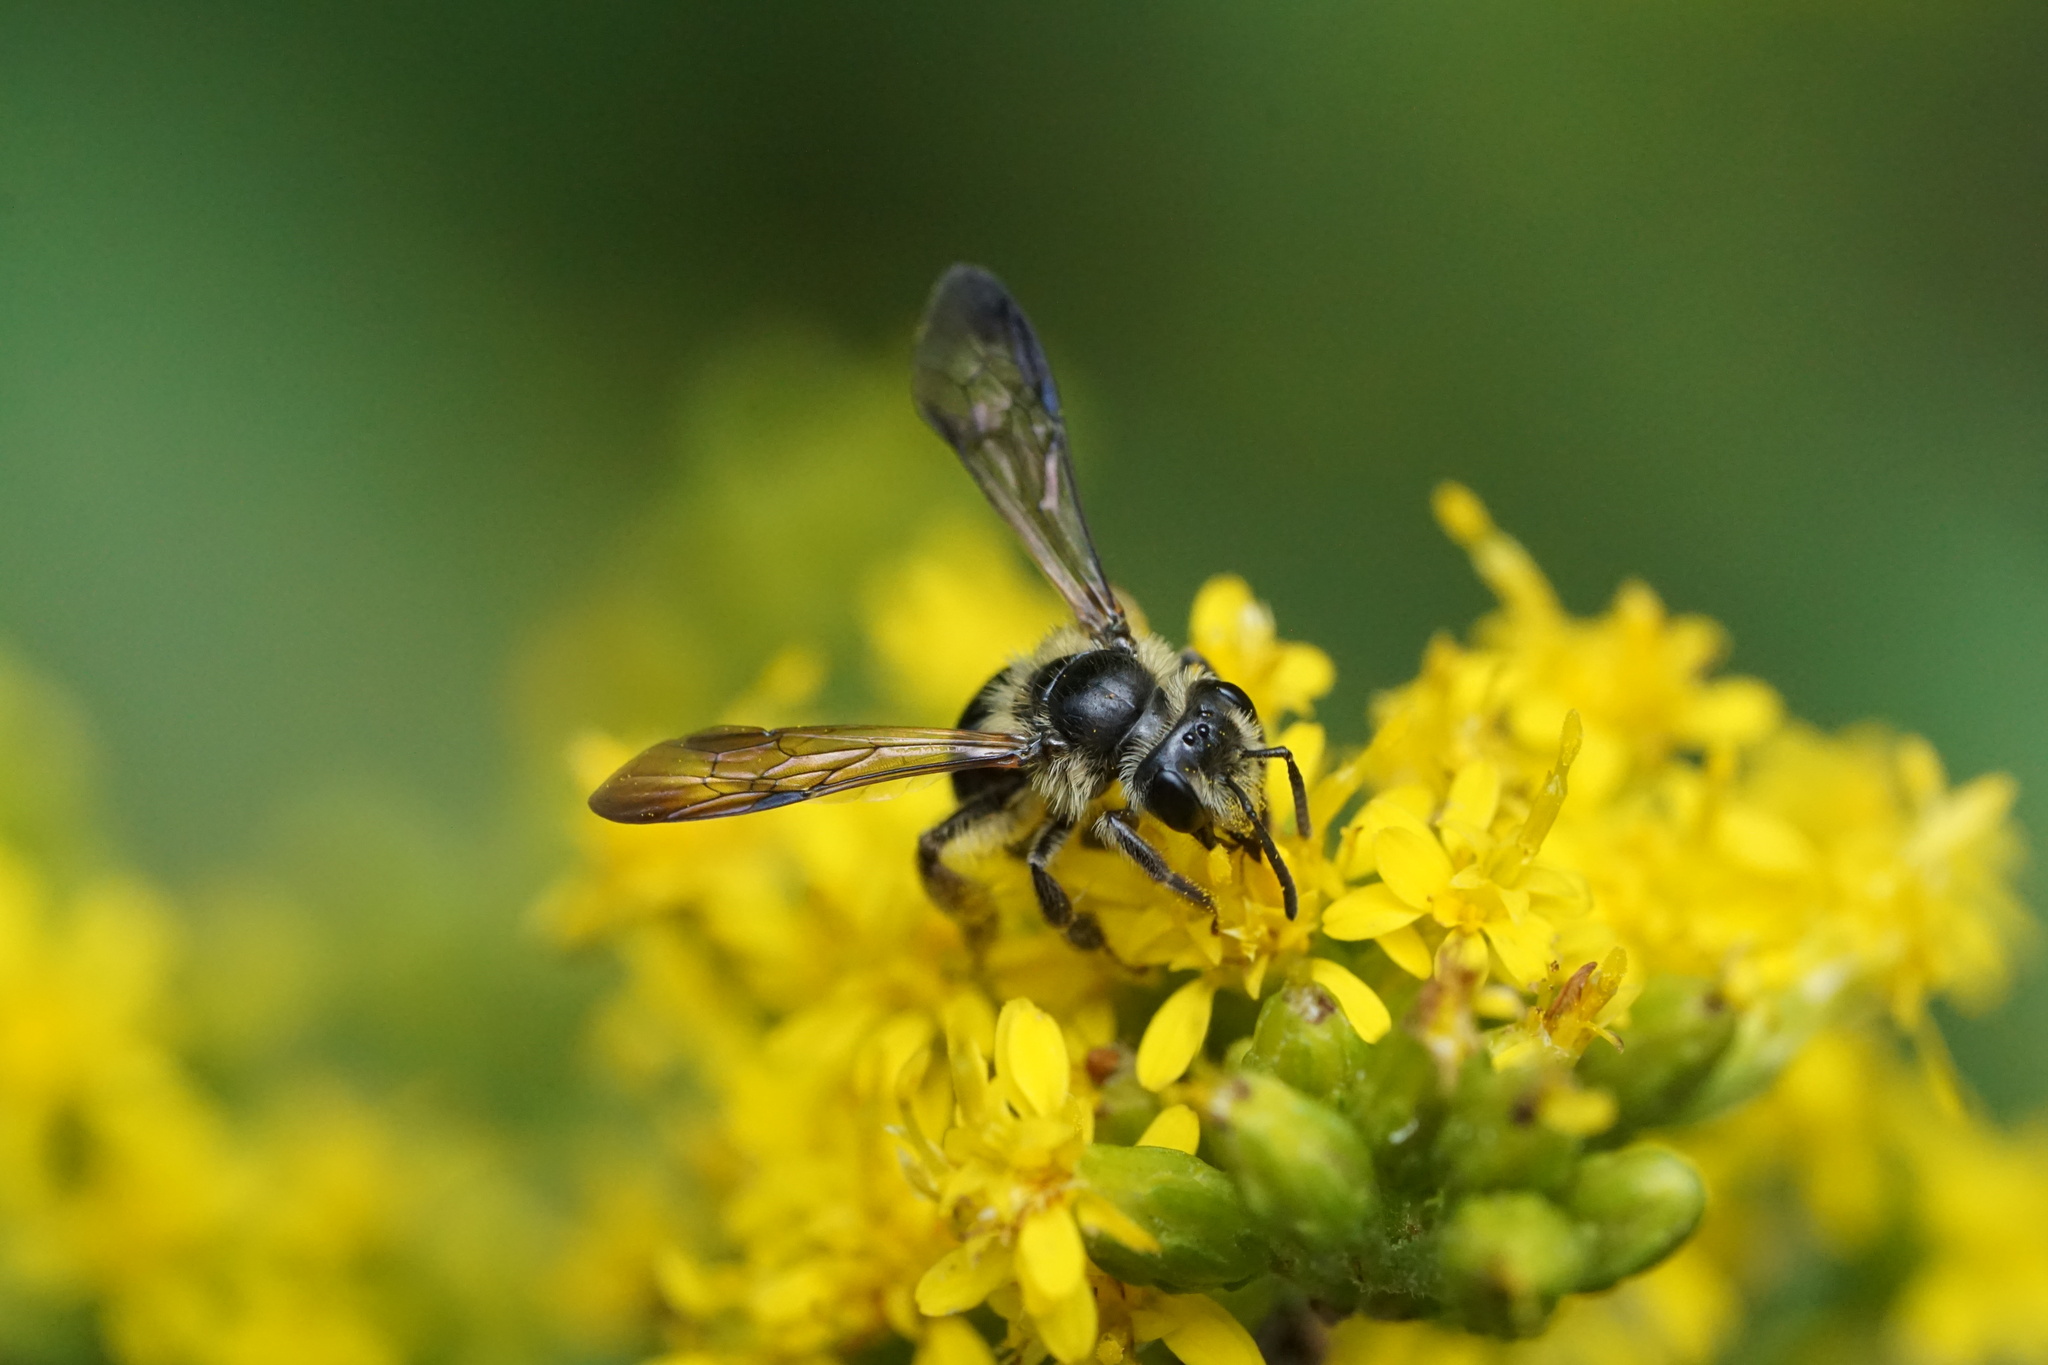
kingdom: Animalia
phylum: Arthropoda
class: Insecta
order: Hymenoptera
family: Andrenidae
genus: Andrena
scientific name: Andrena nubecula
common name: Cloudy-winged mining bee
